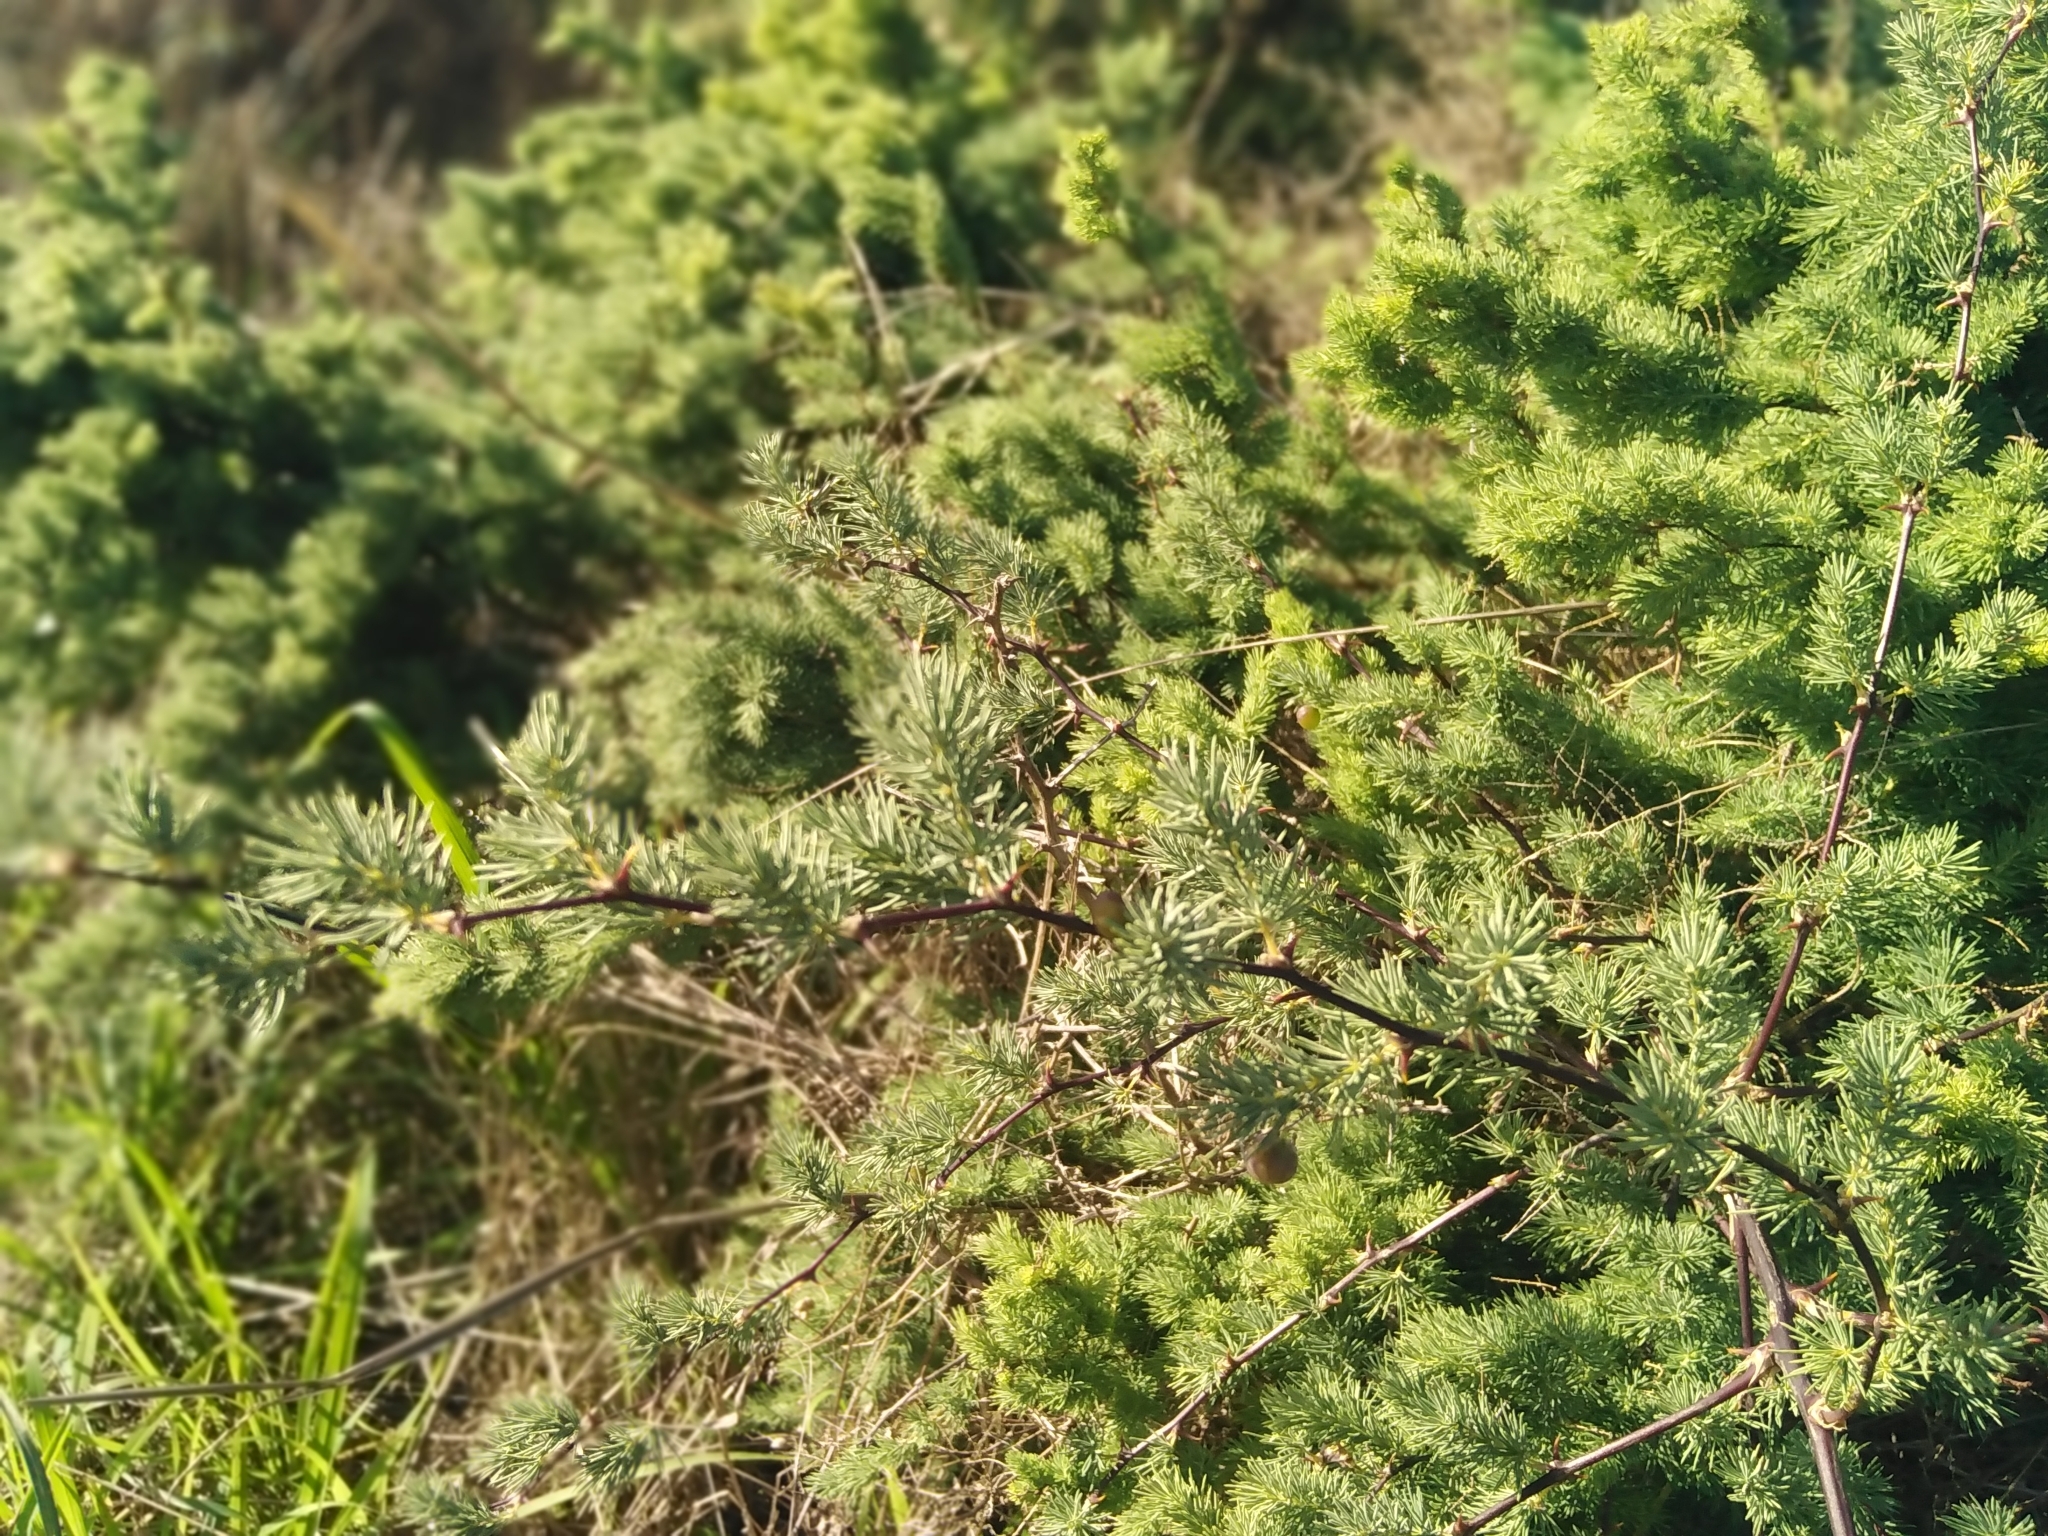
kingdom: Plantae
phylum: Tracheophyta
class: Liliopsida
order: Asparagales
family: Asparagaceae
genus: Asparagus
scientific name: Asparagus rubicundus
